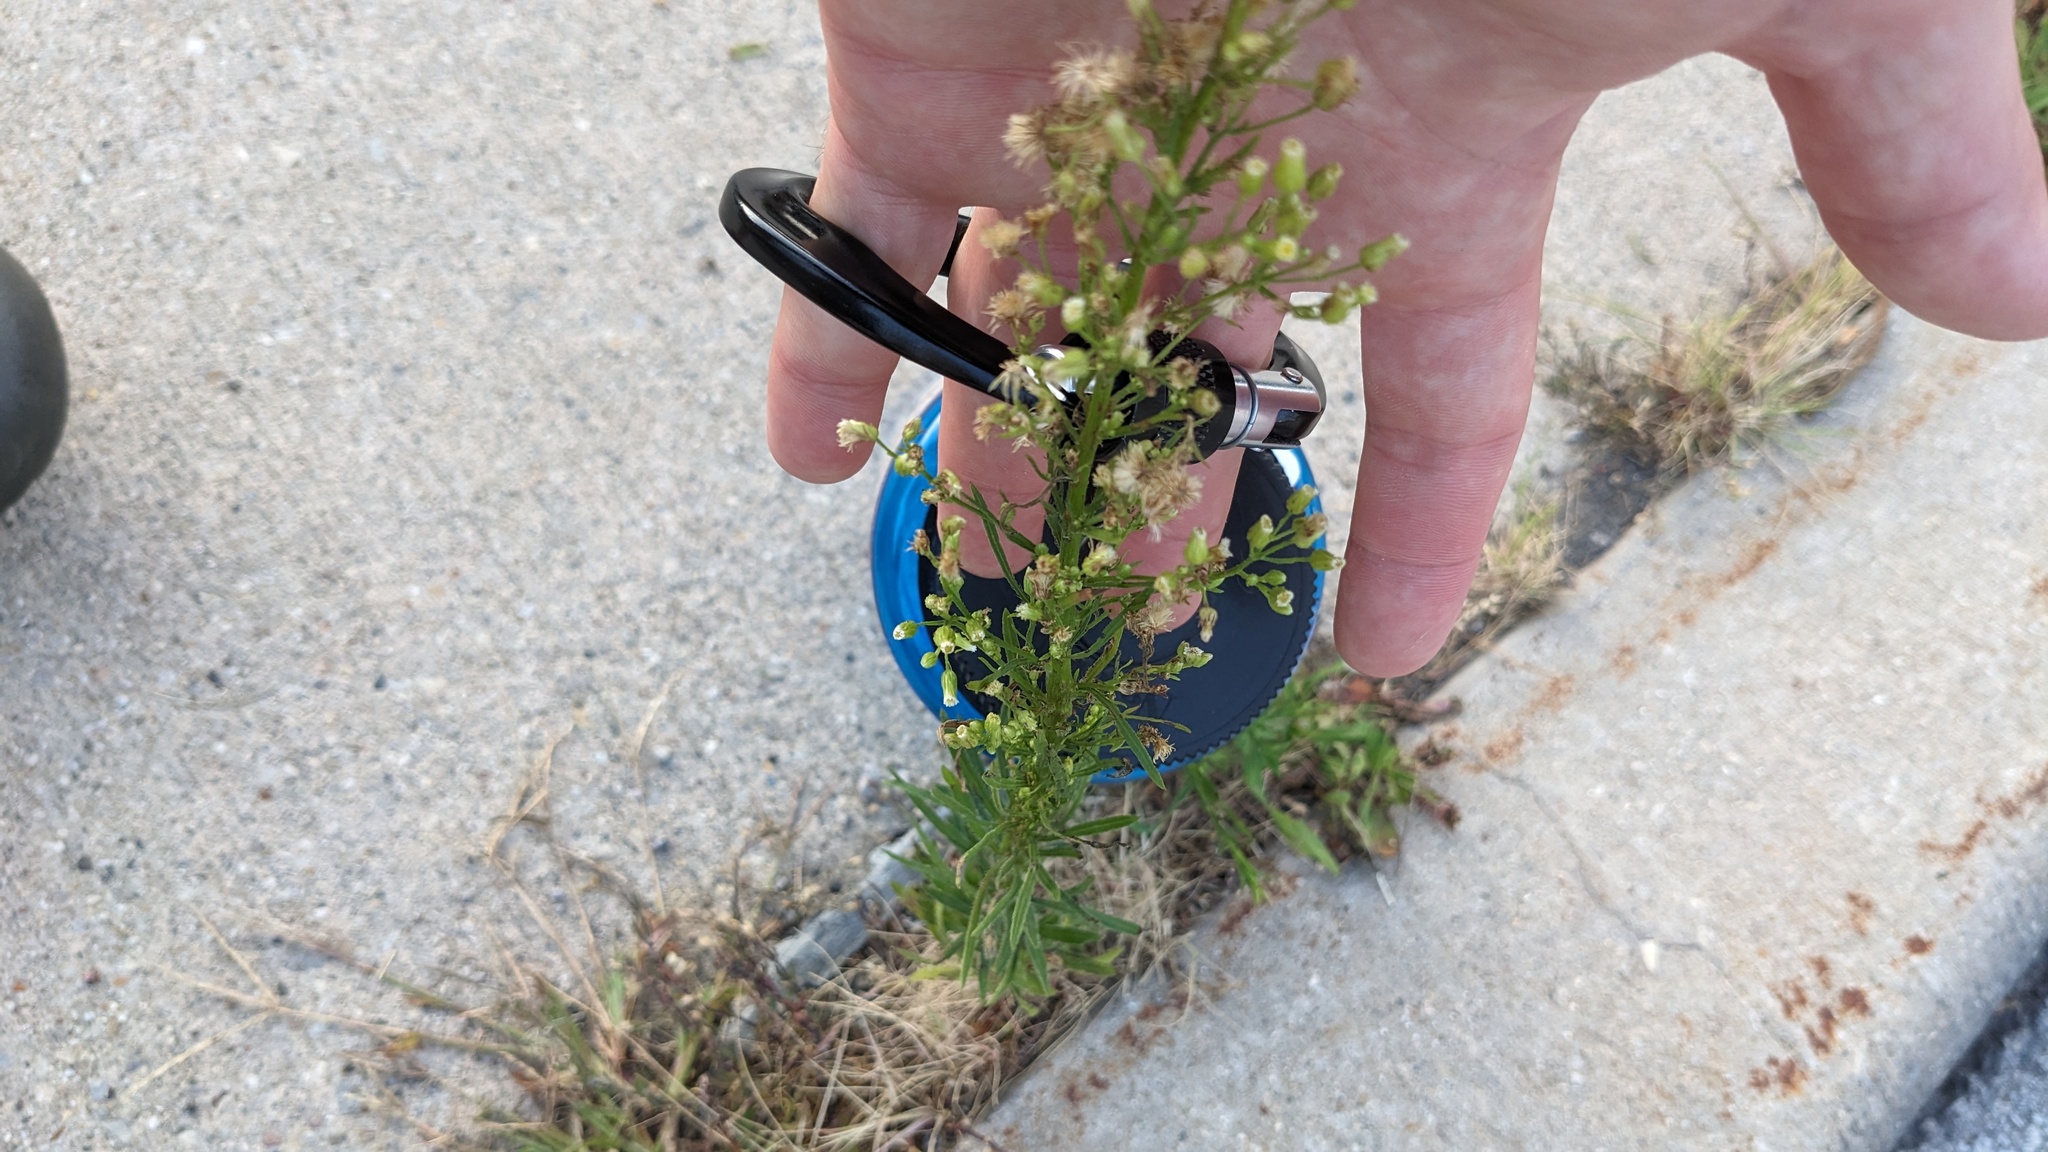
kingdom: Plantae
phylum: Tracheophyta
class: Magnoliopsida
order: Asterales
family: Asteraceae
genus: Erigeron
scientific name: Erigeron canadensis
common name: Canadian fleabane
